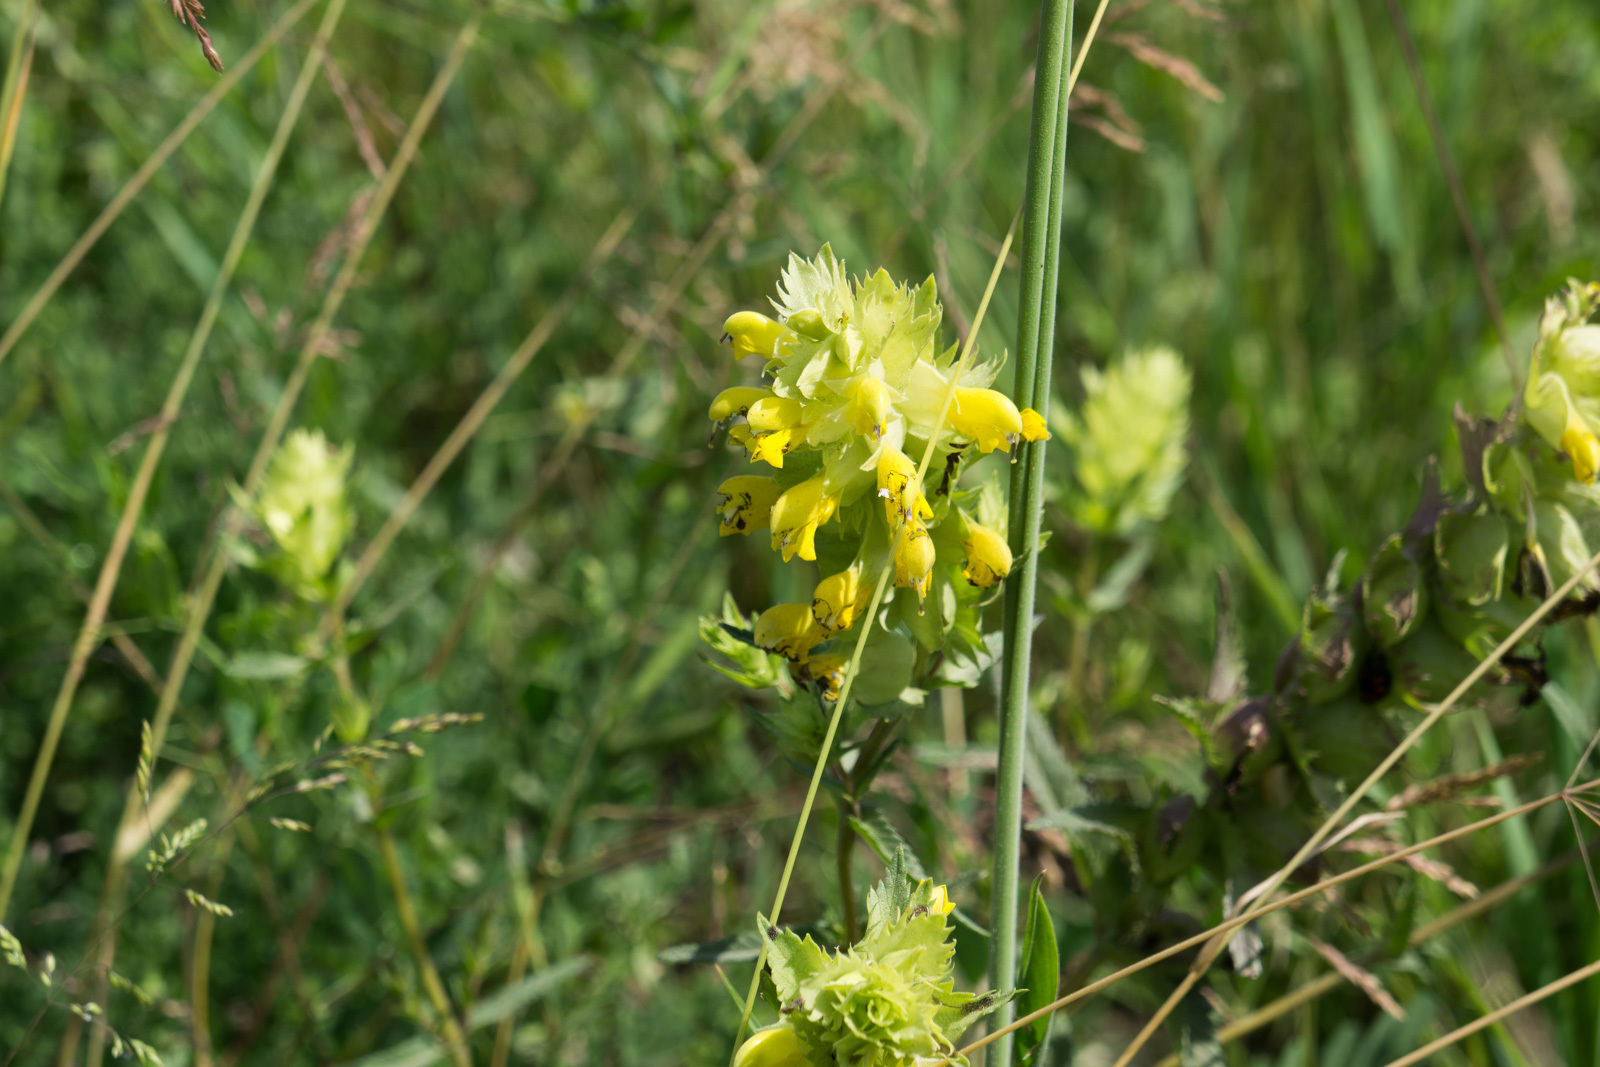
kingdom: Plantae
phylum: Tracheophyta
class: Magnoliopsida
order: Lamiales
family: Orobanchaceae
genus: Rhinanthus
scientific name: Rhinanthus serotinus
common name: Late-flowering yellow rattle
